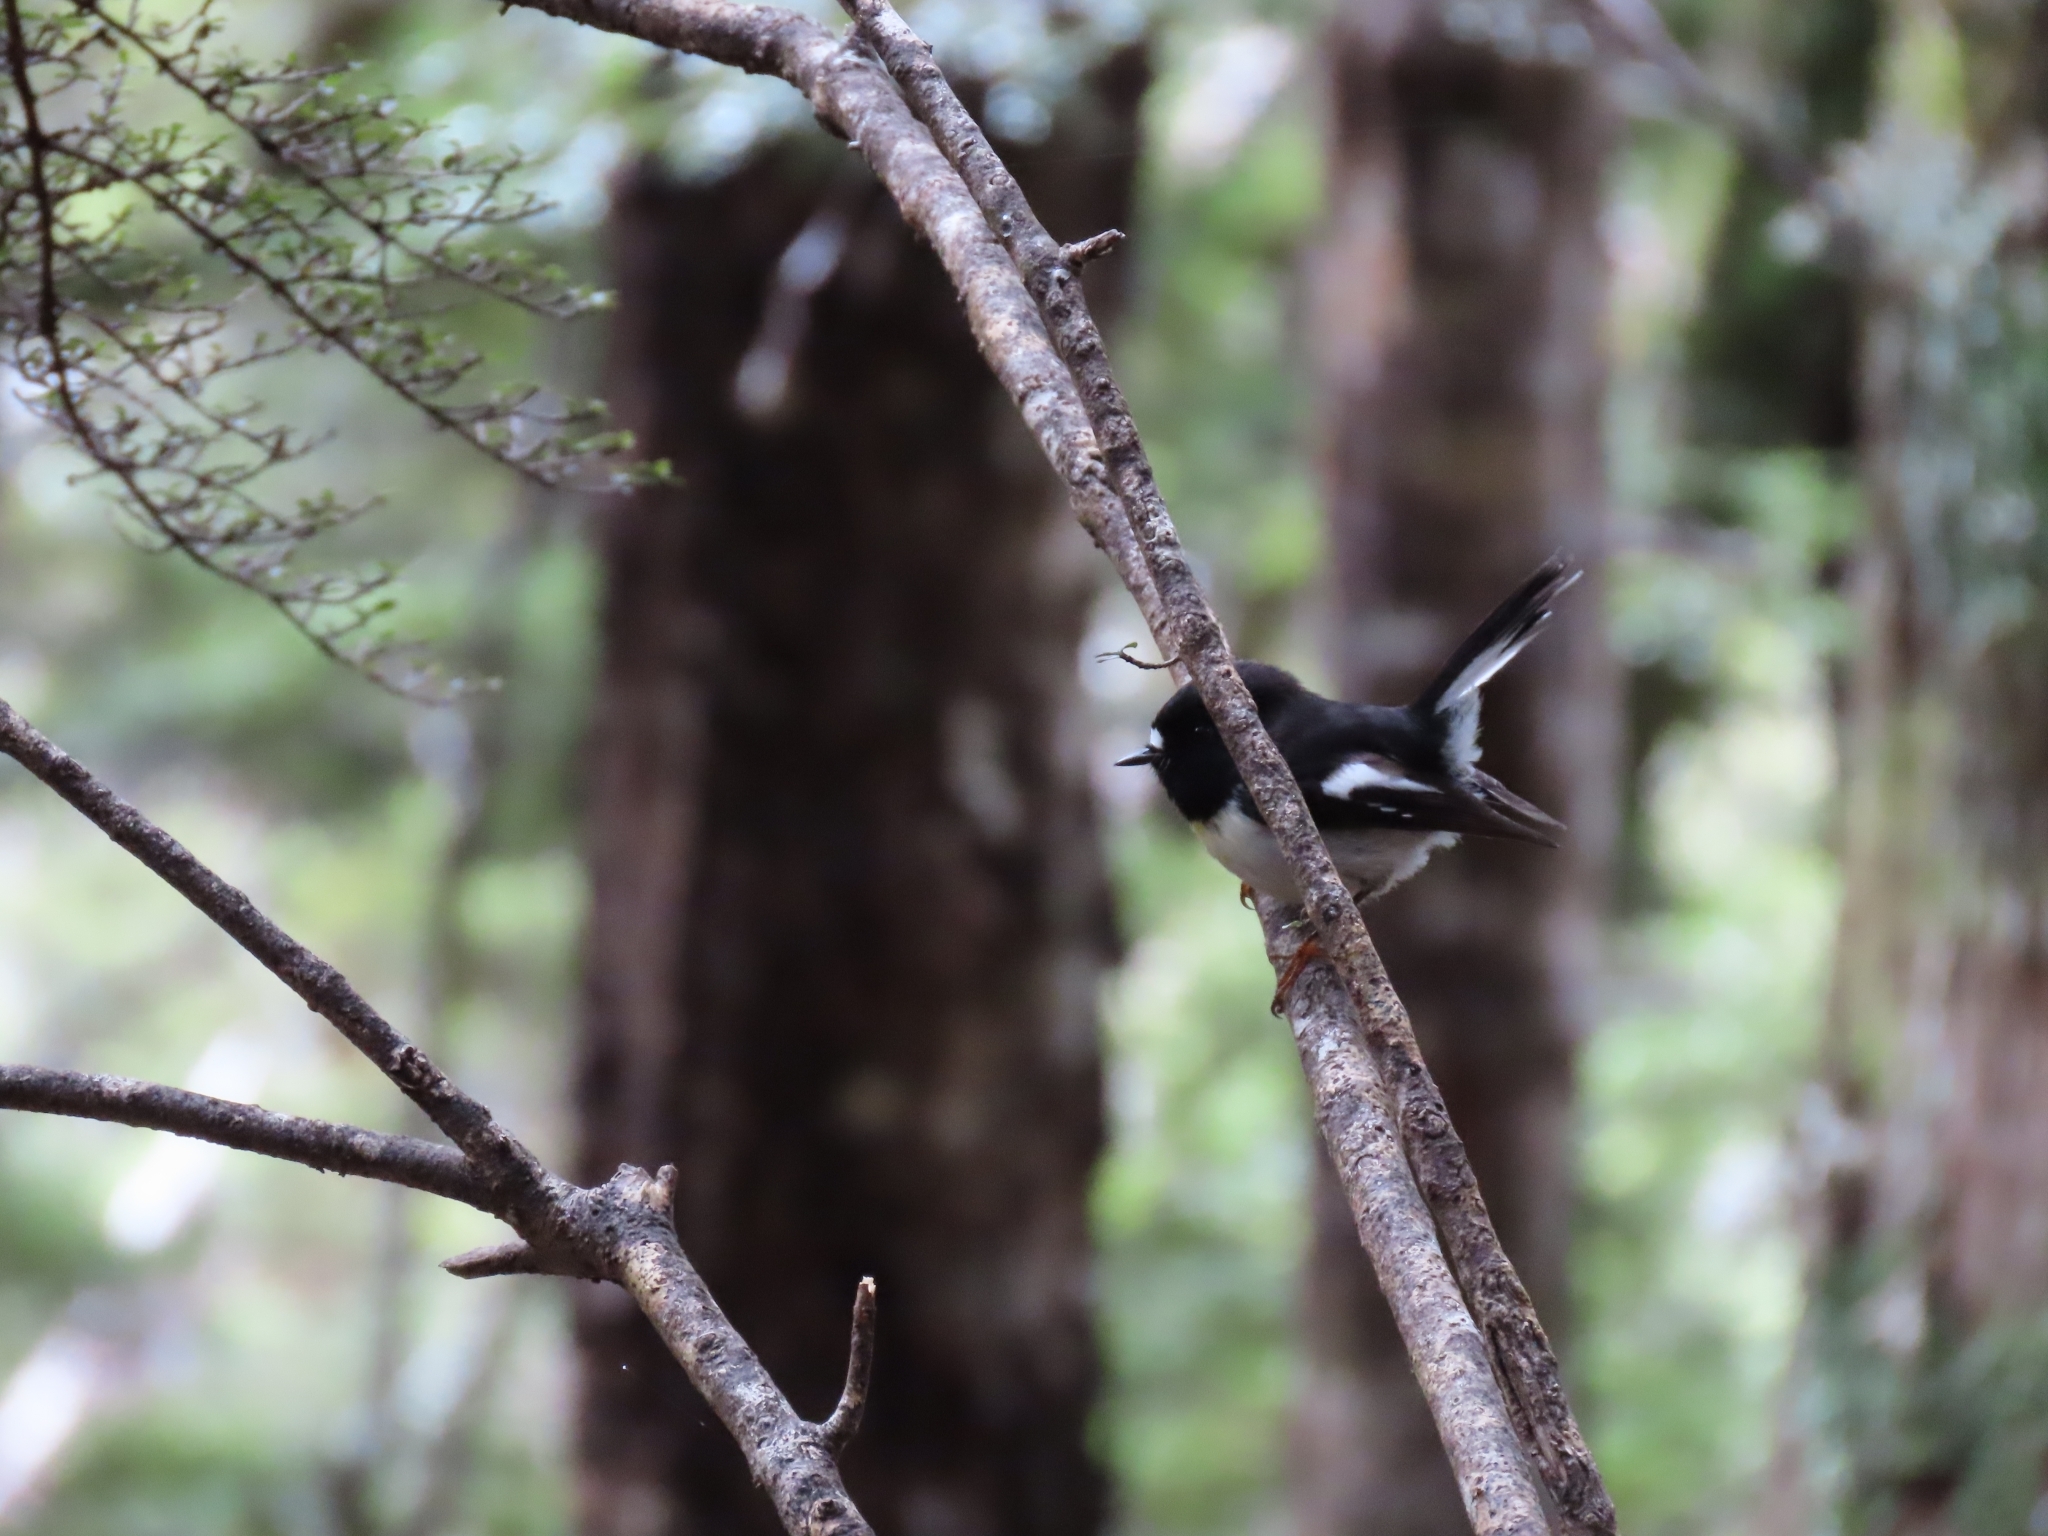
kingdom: Animalia
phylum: Chordata
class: Aves
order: Passeriformes
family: Petroicidae
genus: Petroica
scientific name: Petroica macrocephala
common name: Tomtit
